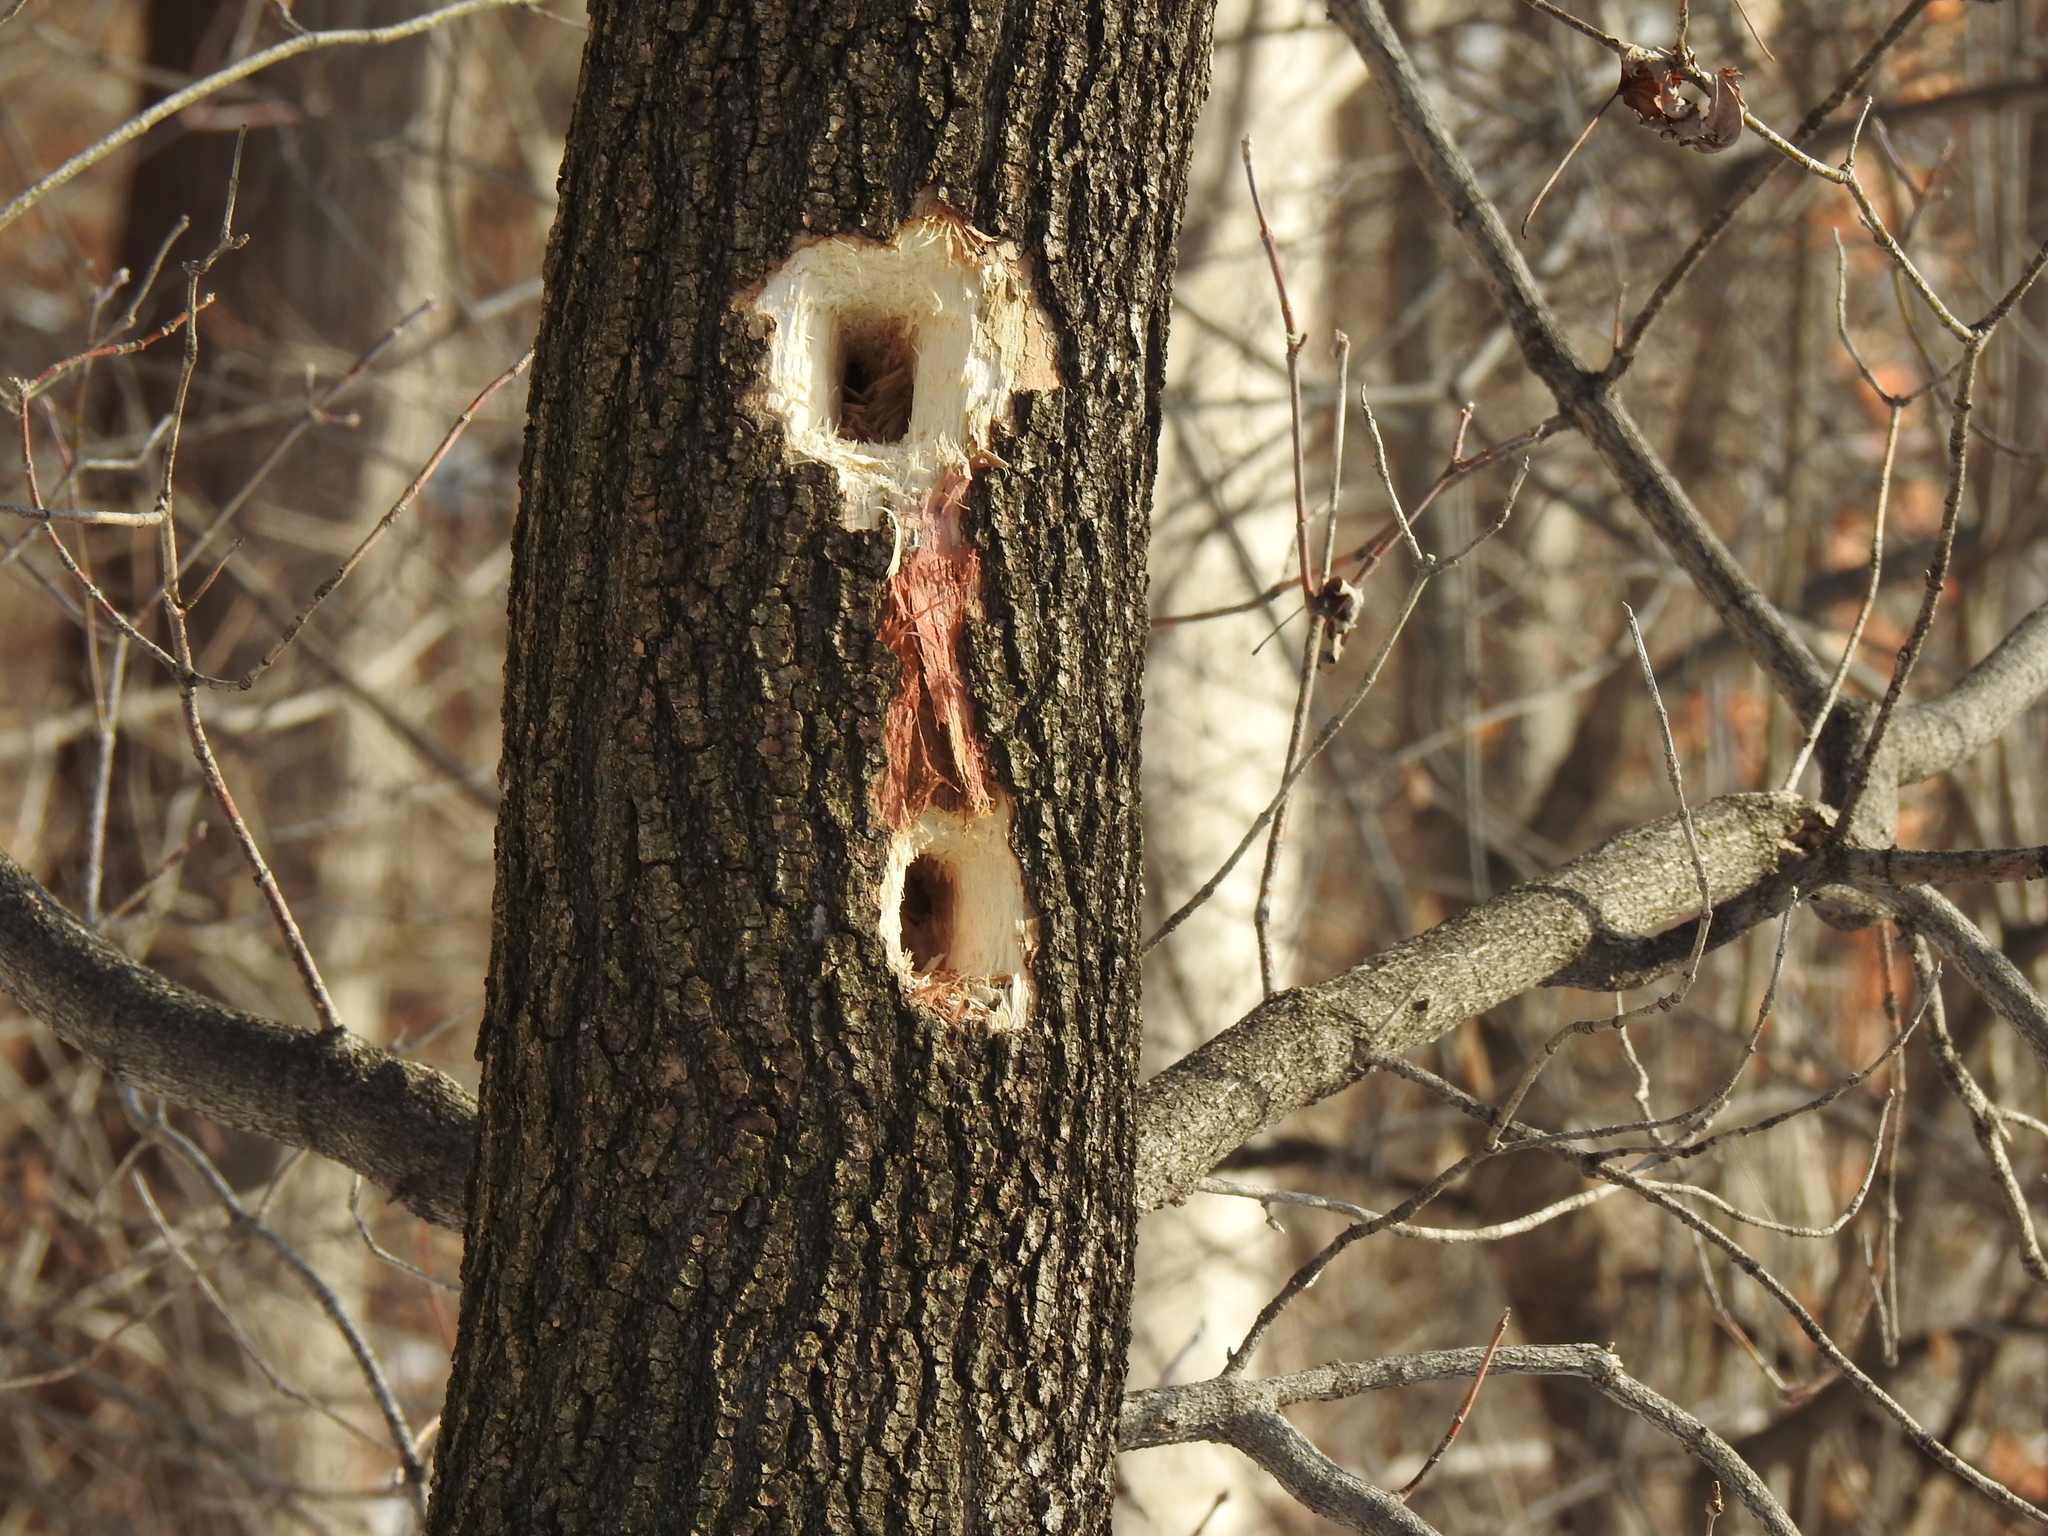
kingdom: Animalia
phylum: Chordata
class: Aves
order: Piciformes
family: Picidae
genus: Dryocopus
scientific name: Dryocopus pileatus
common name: Pileated woodpecker
